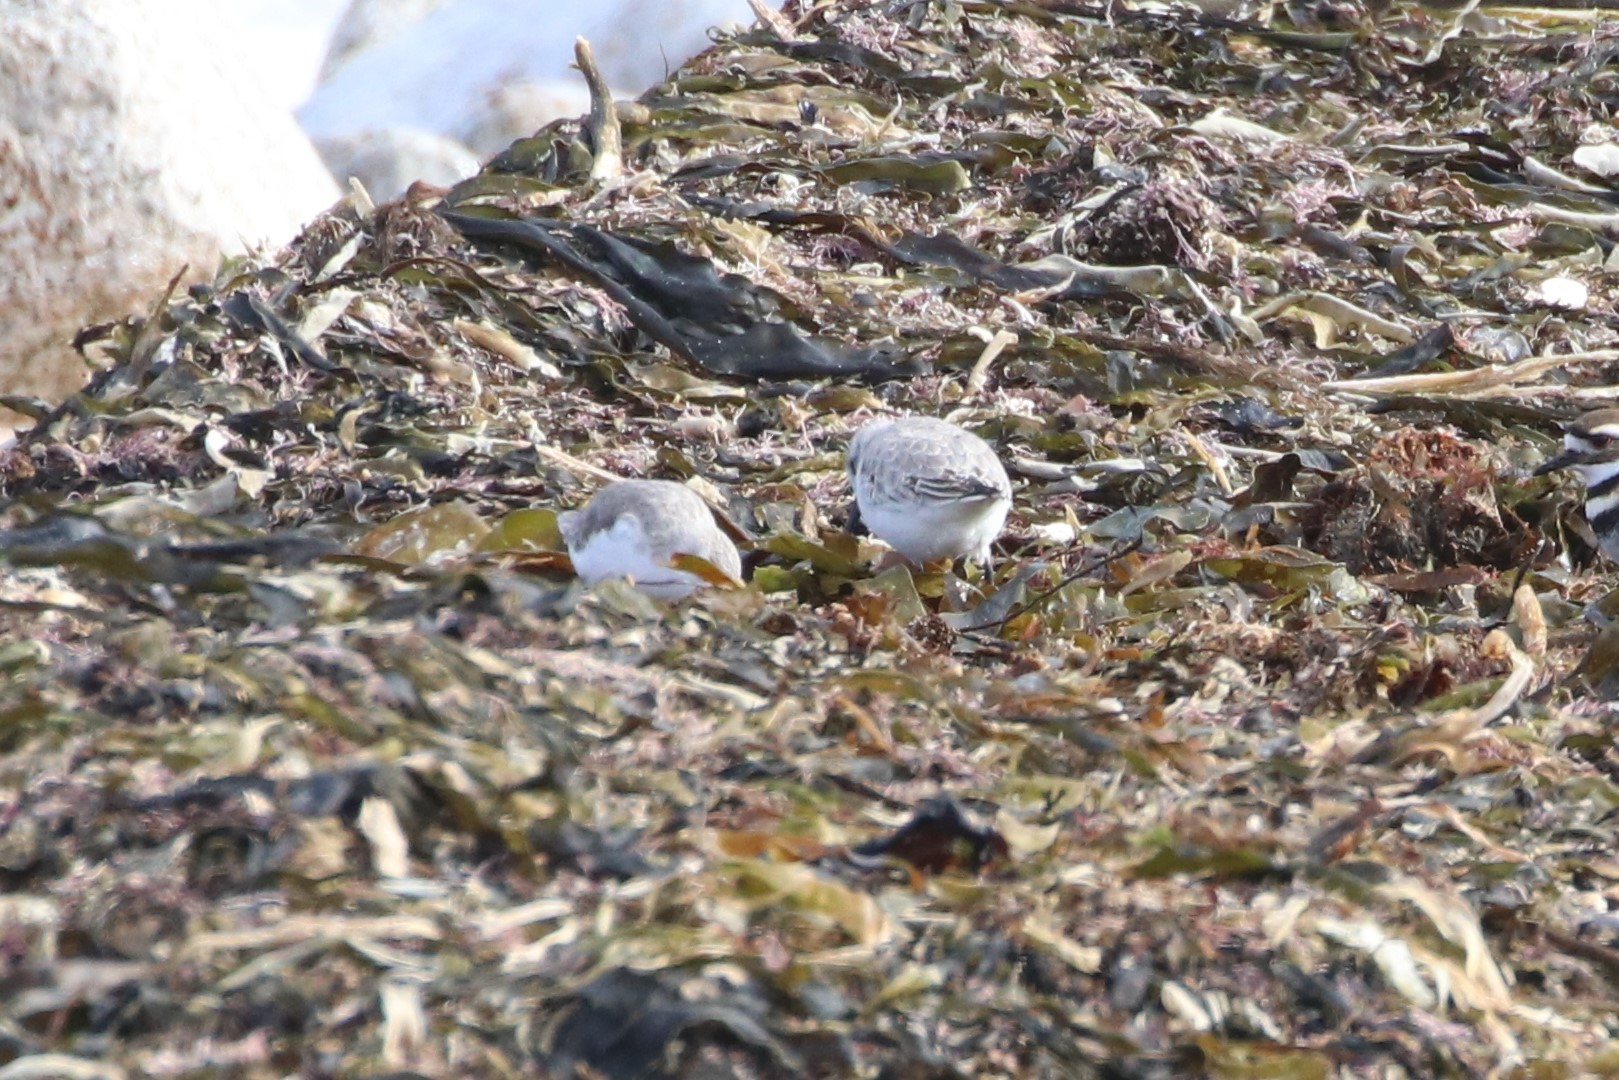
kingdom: Animalia
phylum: Chordata
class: Aves
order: Charadriiformes
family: Scolopacidae
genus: Calidris
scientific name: Calidris alba
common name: Sanderling
